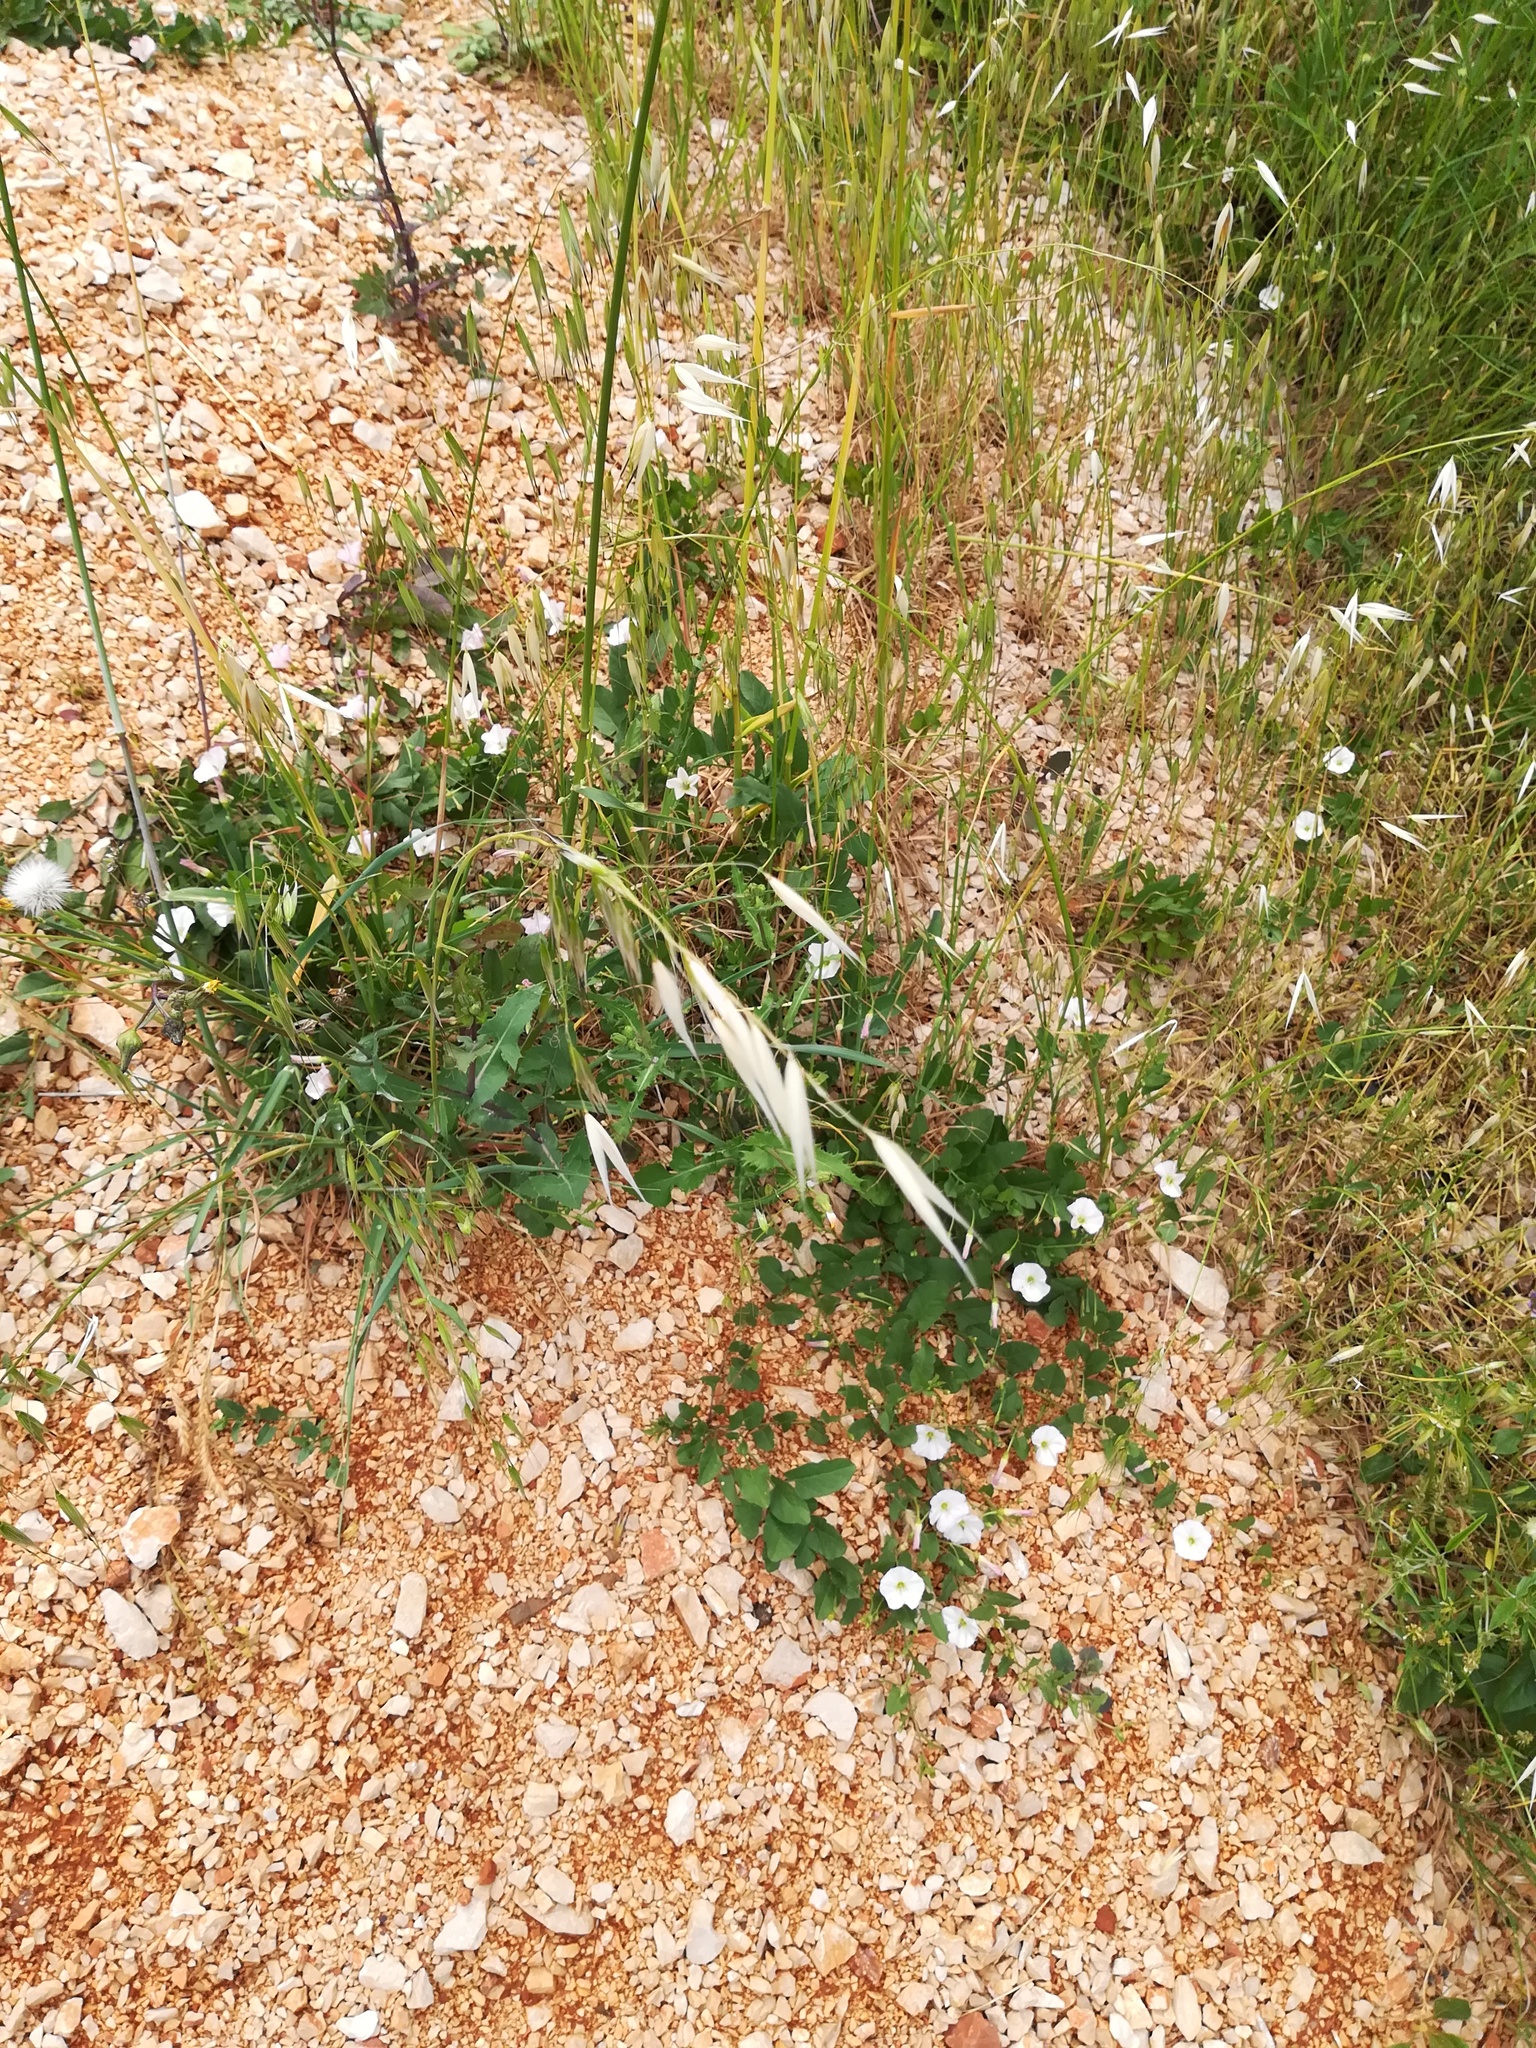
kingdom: Plantae
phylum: Tracheophyta
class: Magnoliopsida
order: Solanales
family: Convolvulaceae
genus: Convolvulus
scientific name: Convolvulus arvensis
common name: Field bindweed
